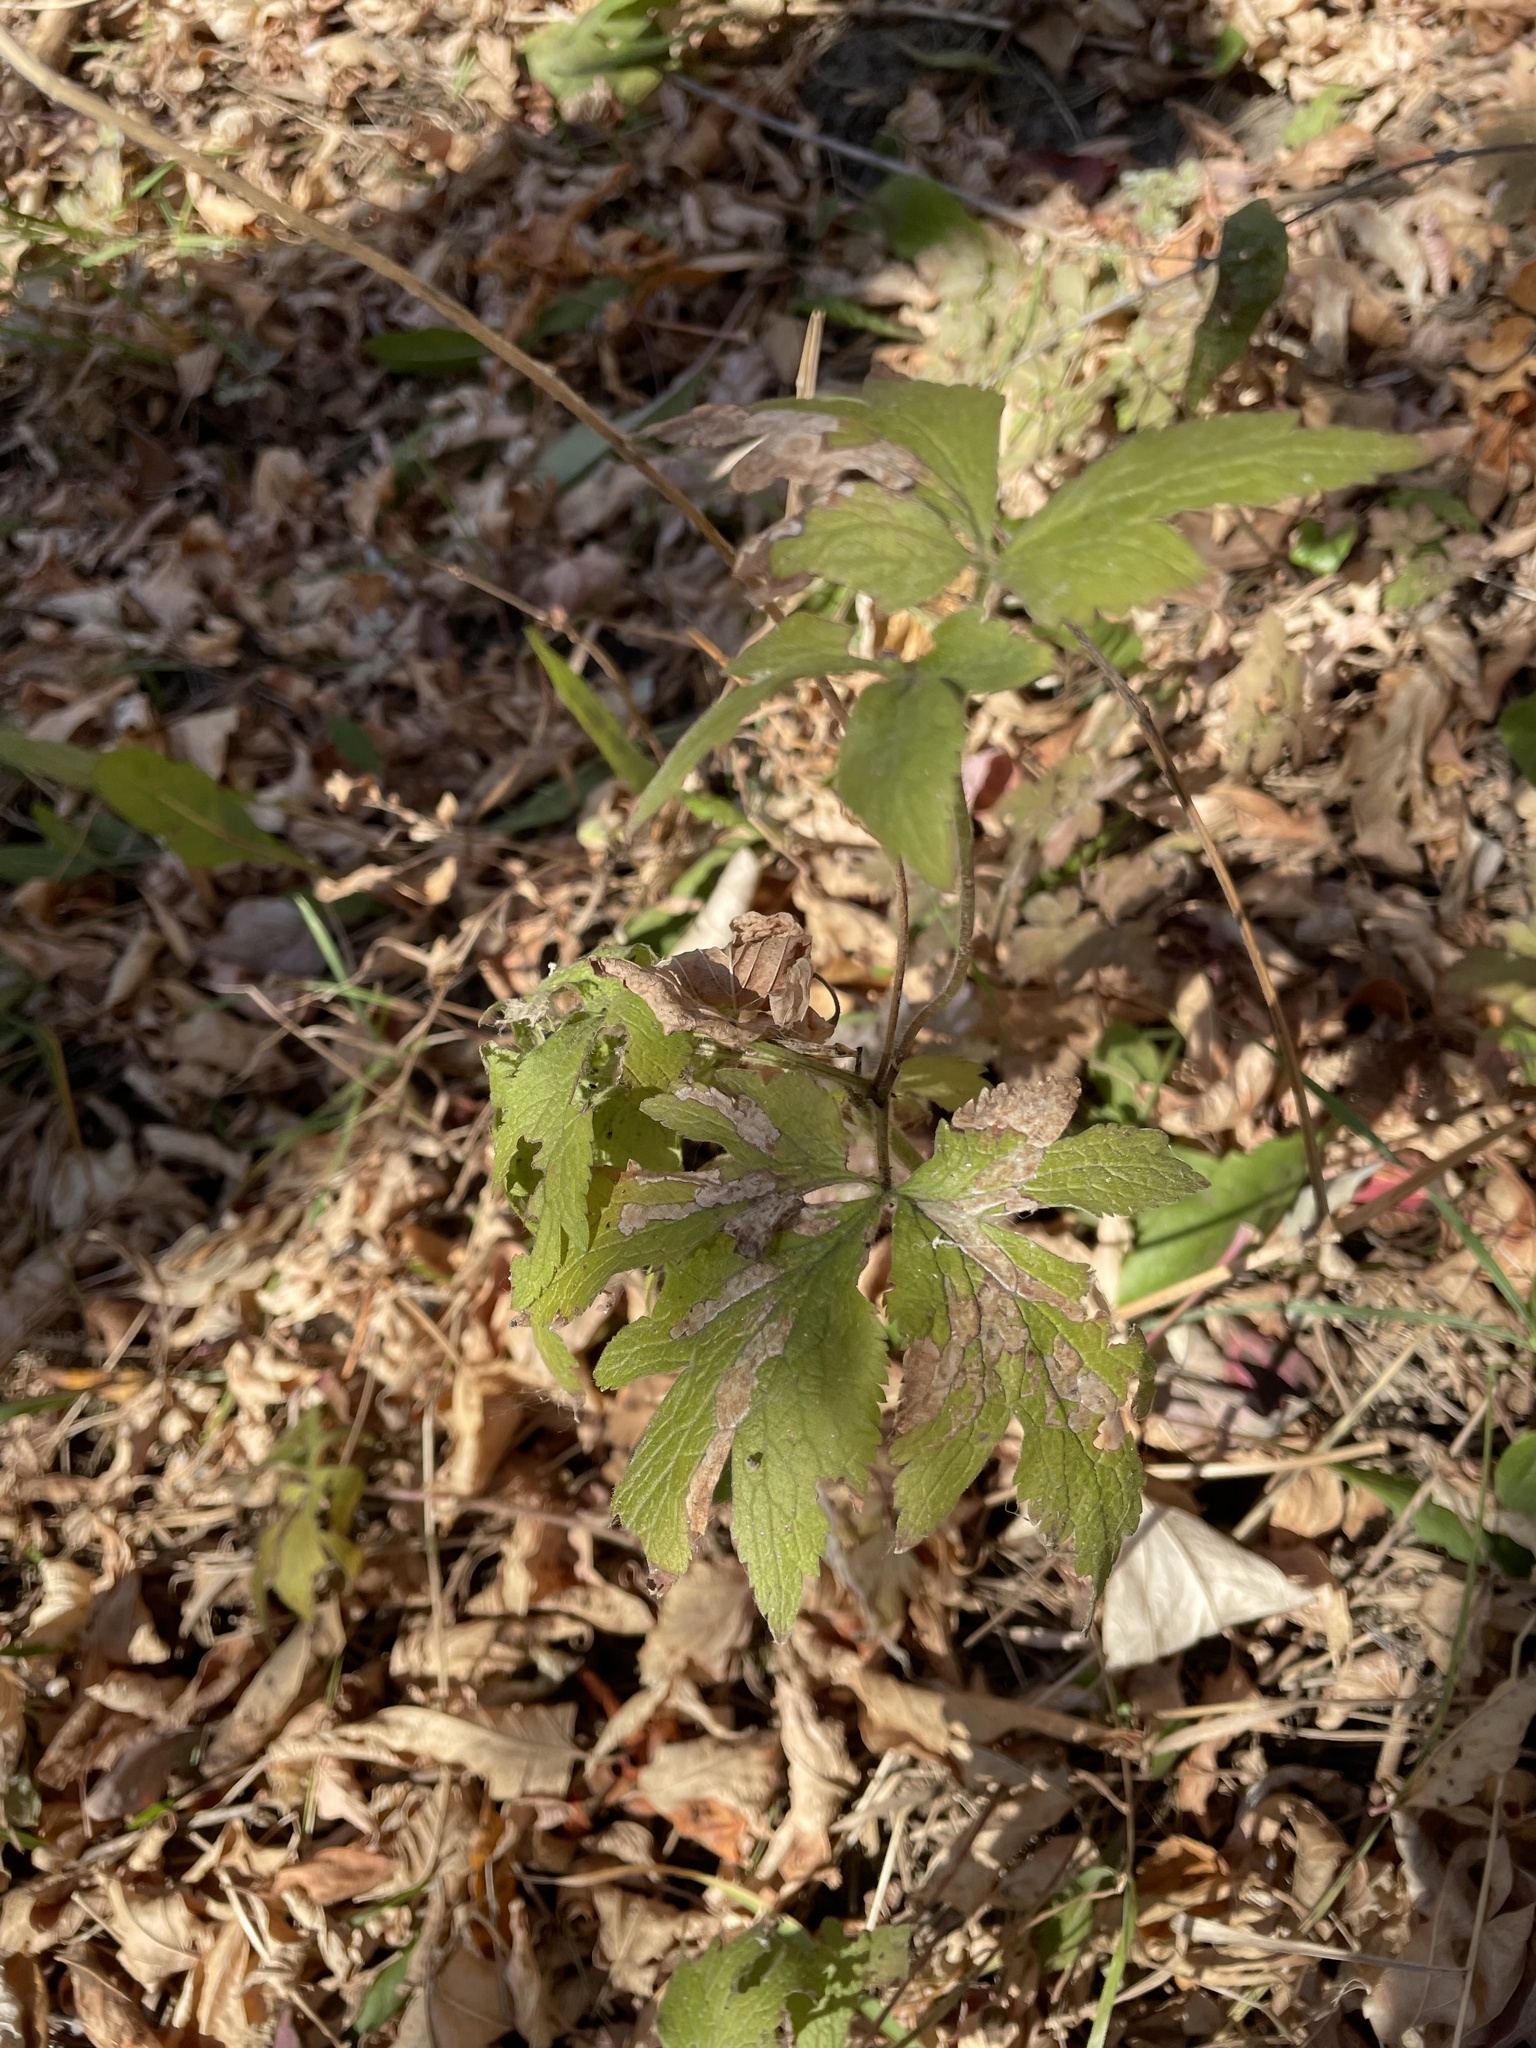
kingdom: Plantae
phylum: Tracheophyta
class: Magnoliopsida
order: Ranunculales
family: Ranunculaceae
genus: Anemone
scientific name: Anemone virginiana
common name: Tall anemone
